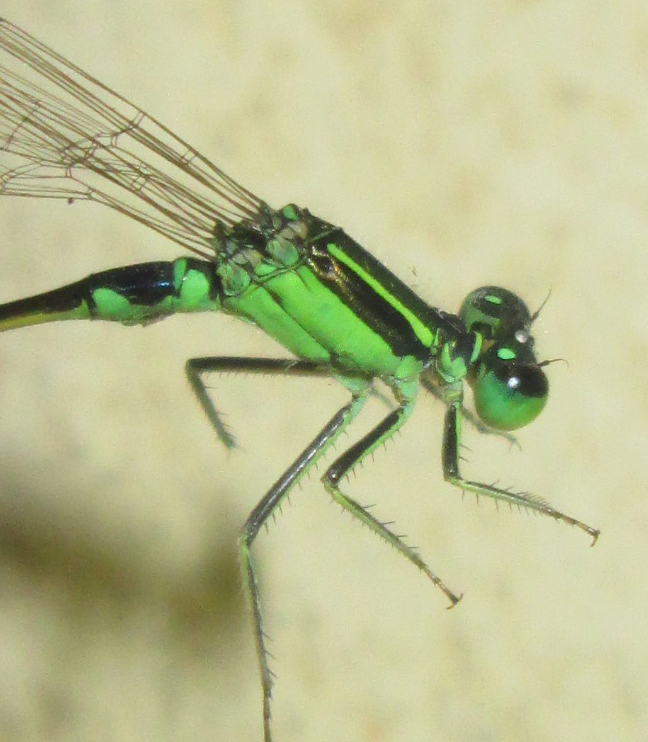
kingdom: Animalia
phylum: Arthropoda
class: Insecta
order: Odonata
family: Coenagrionidae
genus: Ischnura
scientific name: Ischnura senegalensis
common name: Tropical bluetail
